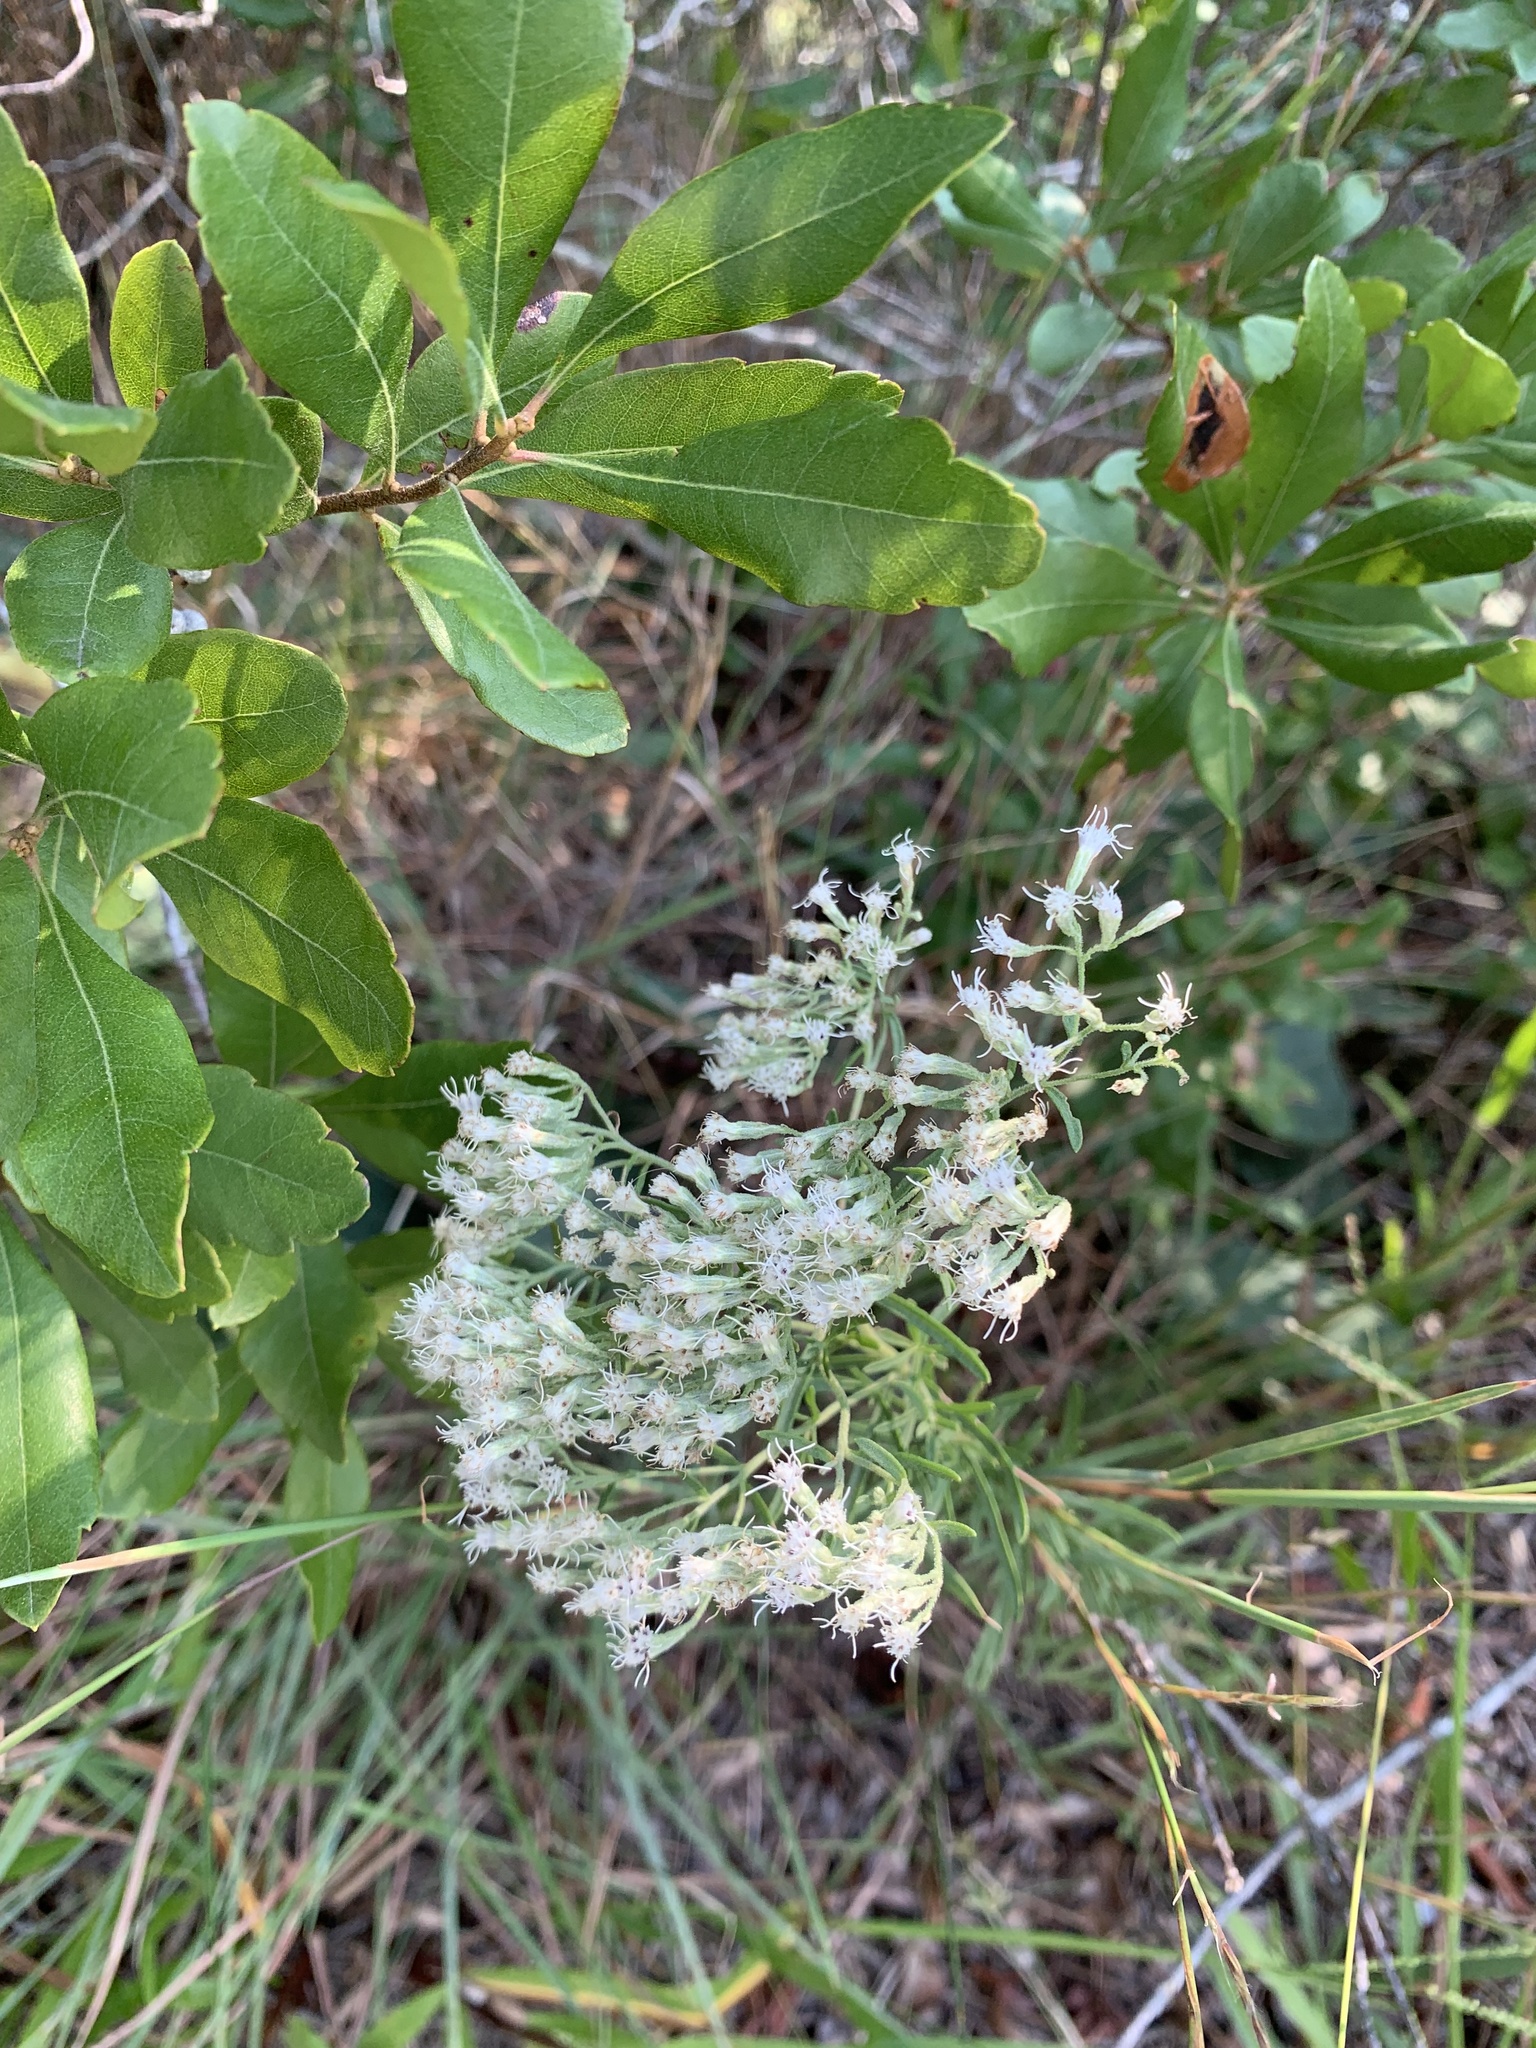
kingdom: Plantae
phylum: Tracheophyta
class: Magnoliopsida
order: Asterales
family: Asteraceae
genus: Eupatorium
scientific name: Eupatorium hyssopifolium
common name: Hyssop-leaf thoroughwort
